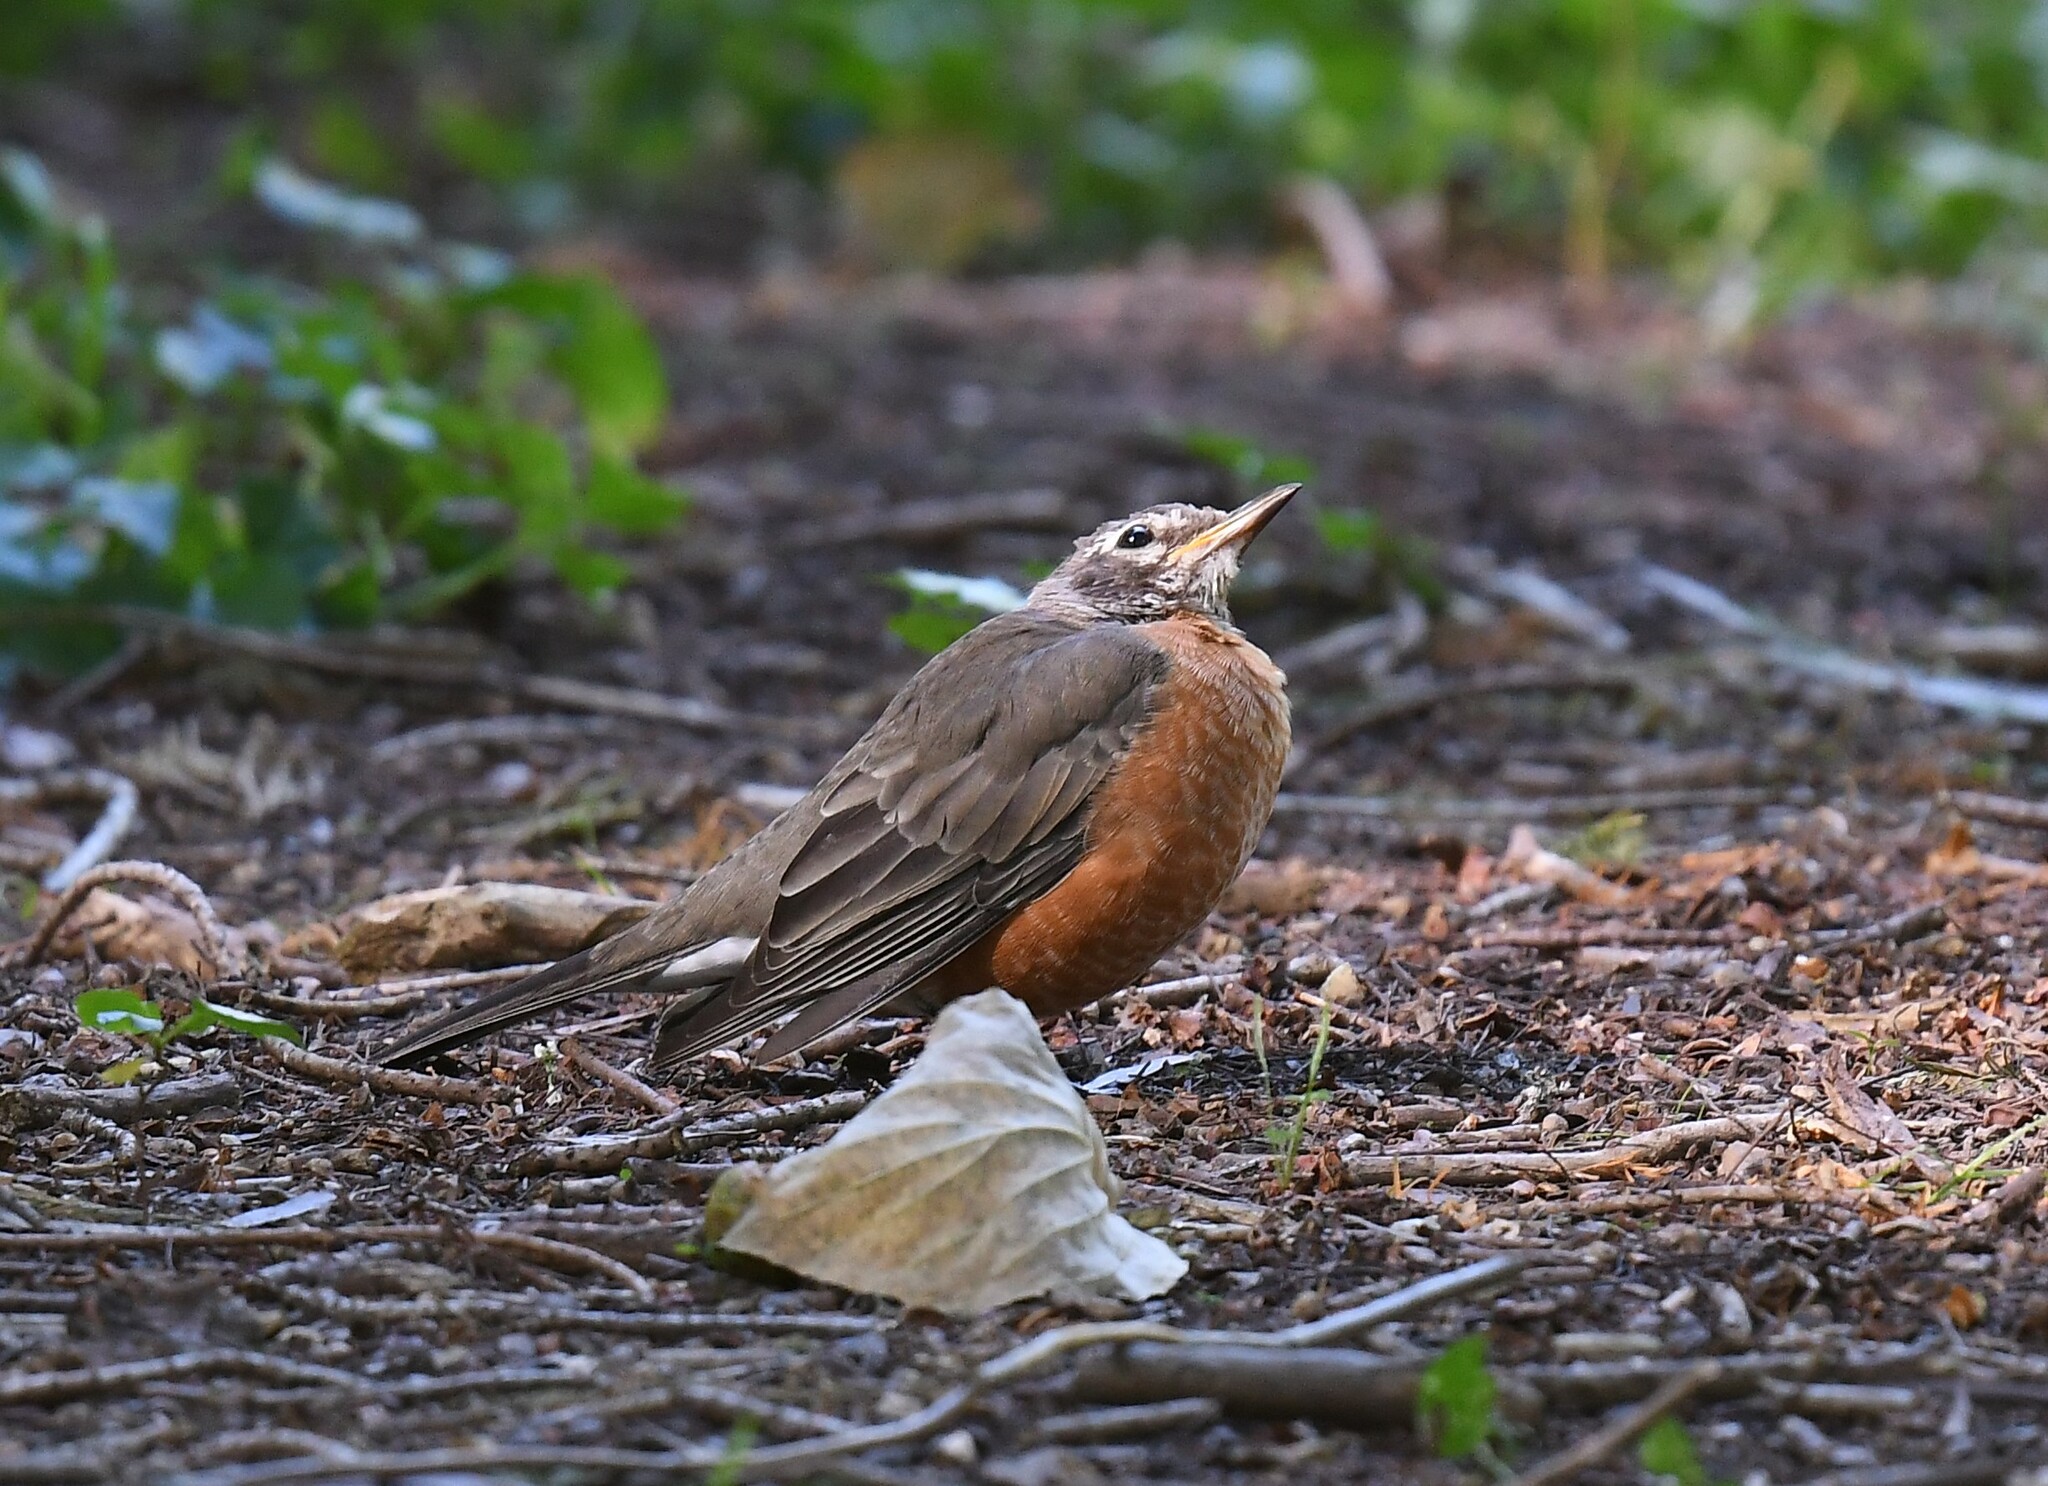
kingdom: Animalia
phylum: Chordata
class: Aves
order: Passeriformes
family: Turdidae
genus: Turdus
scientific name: Turdus migratorius
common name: American robin
